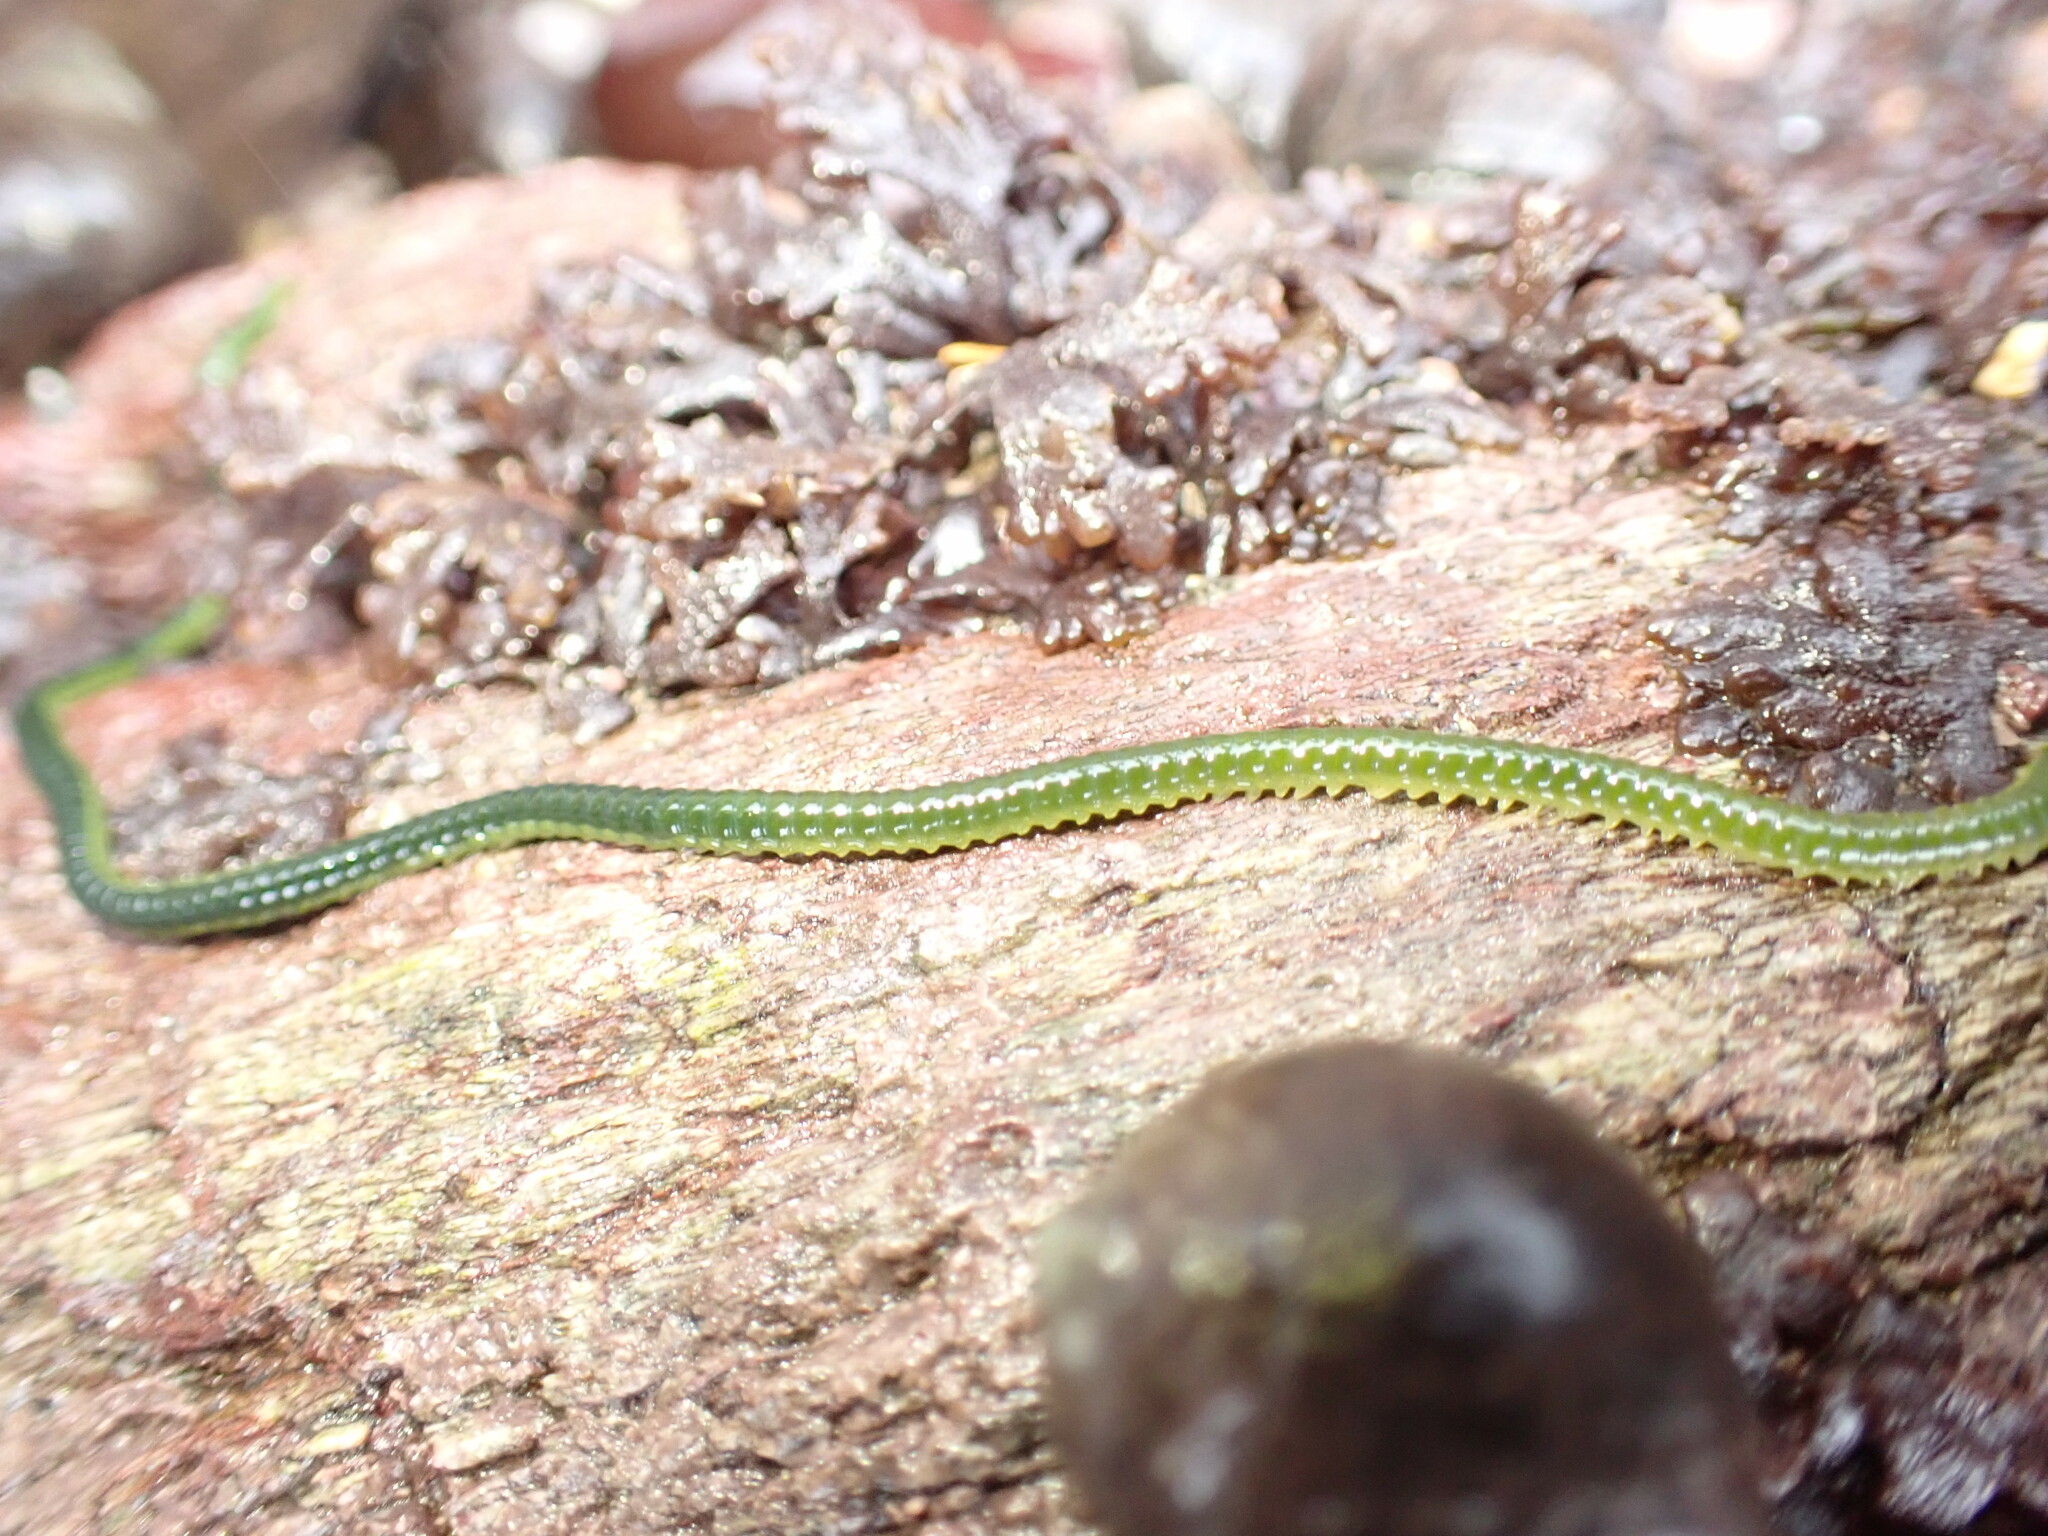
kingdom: Animalia
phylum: Annelida
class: Polychaeta
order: Phyllodocida
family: Phyllodocidae
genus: Eulalia
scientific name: Eulalia clavigera
